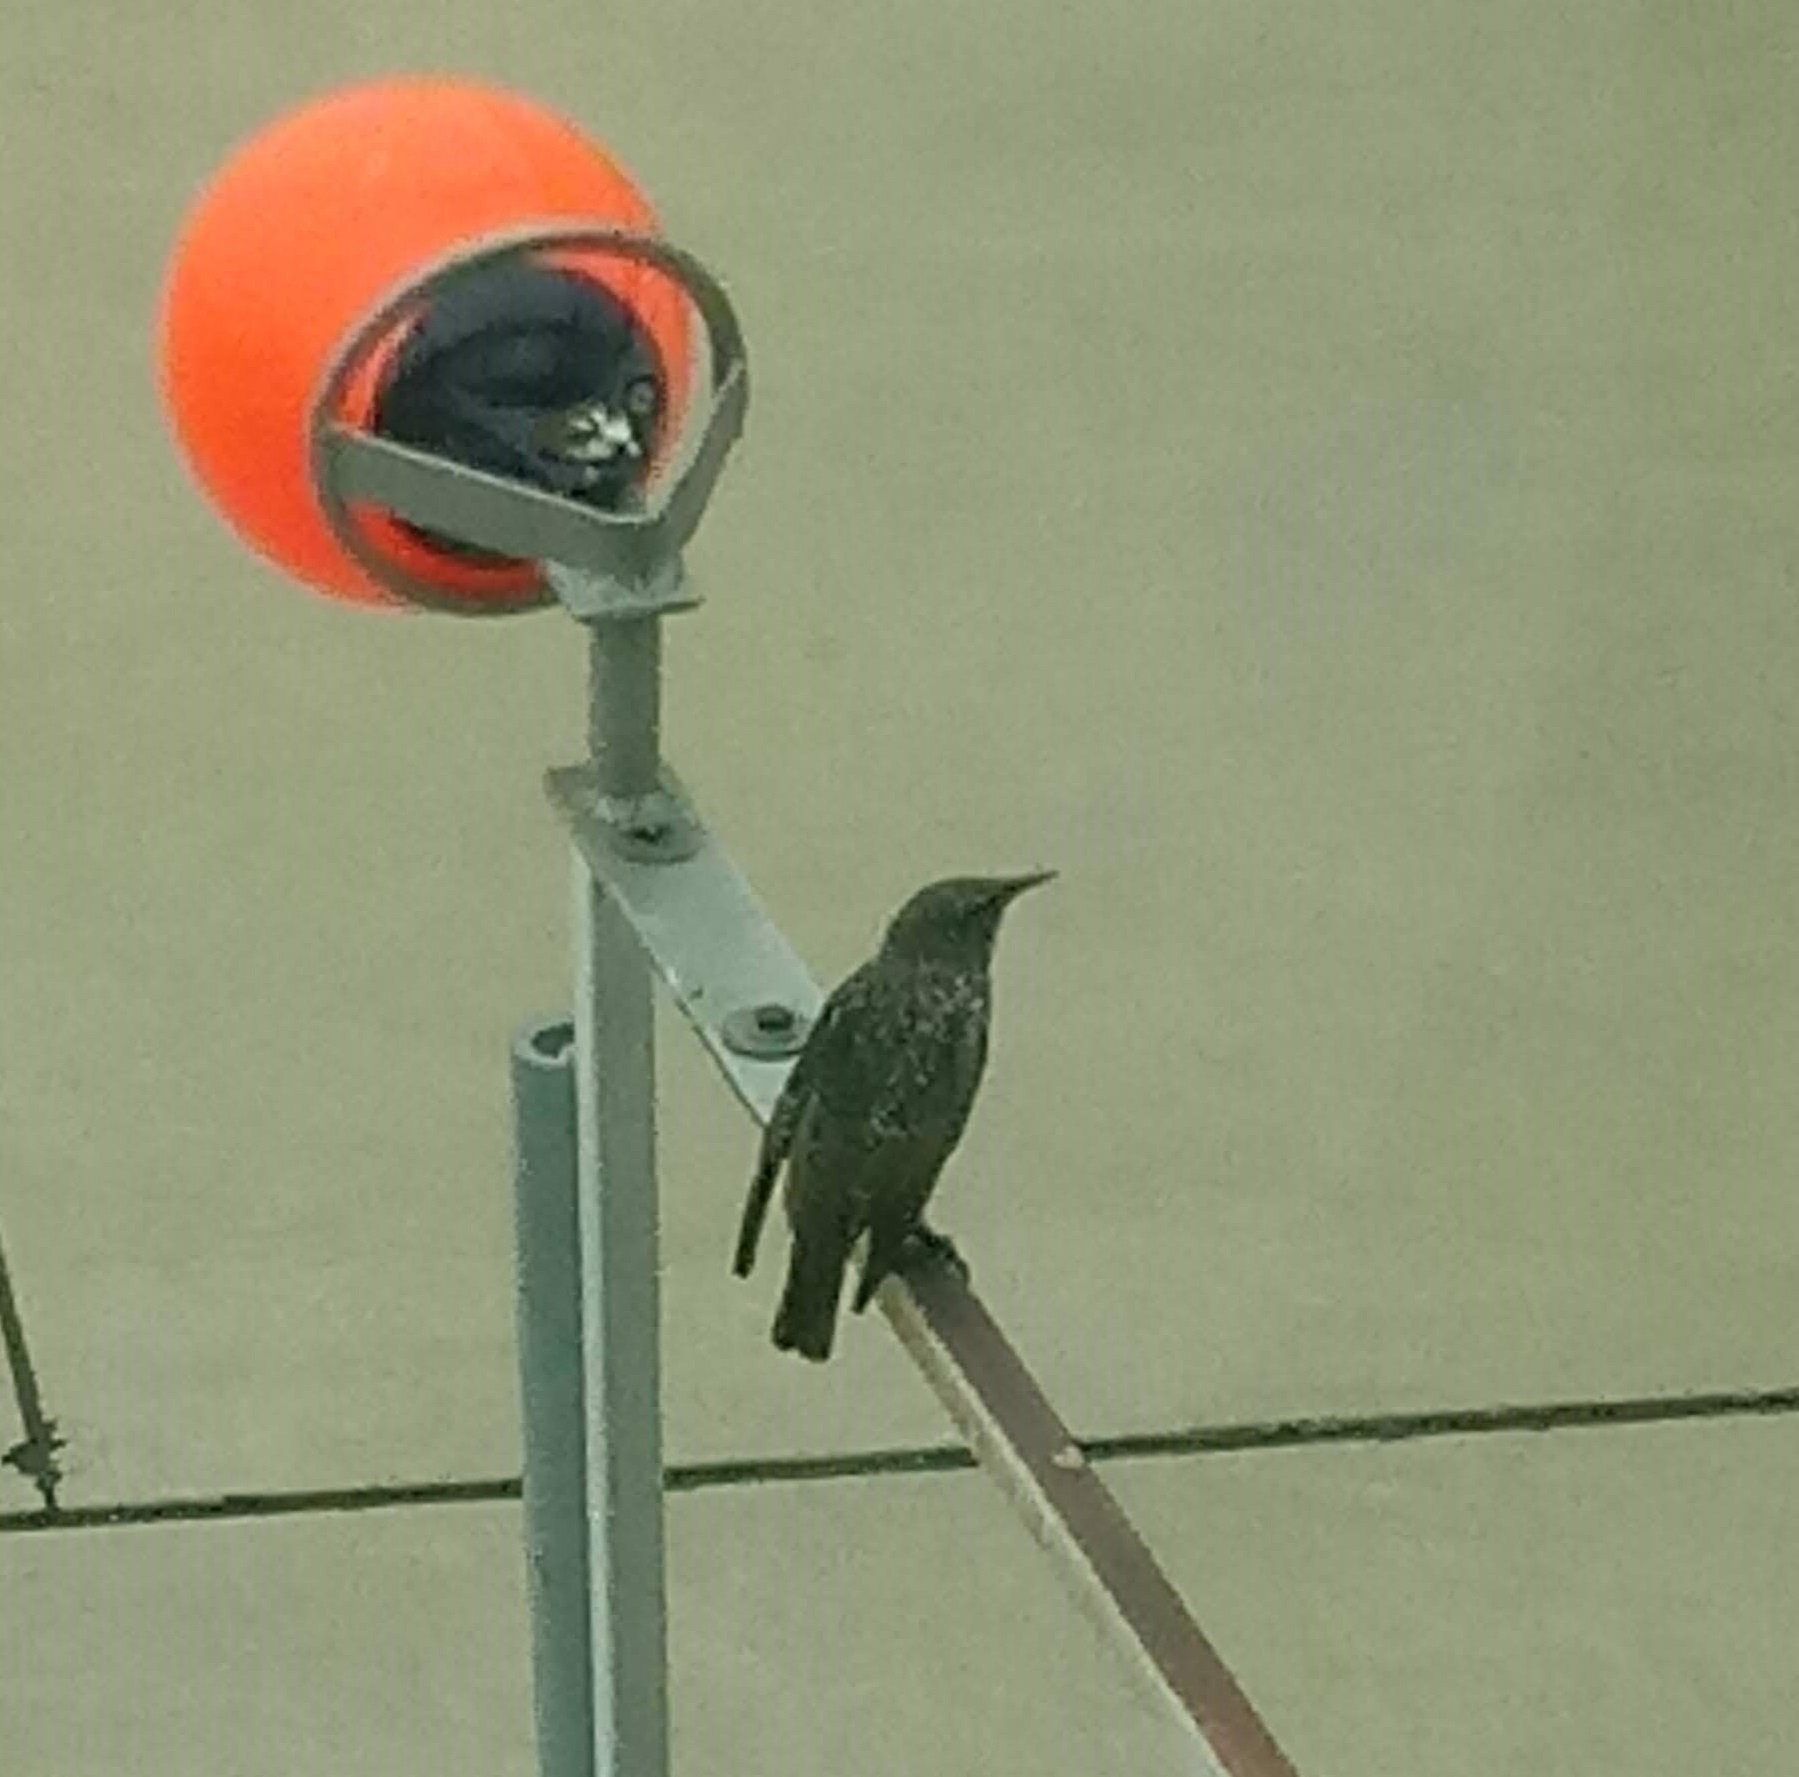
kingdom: Animalia
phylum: Chordata
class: Aves
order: Passeriformes
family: Sturnidae
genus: Sturnus
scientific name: Sturnus vulgaris
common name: Common starling
